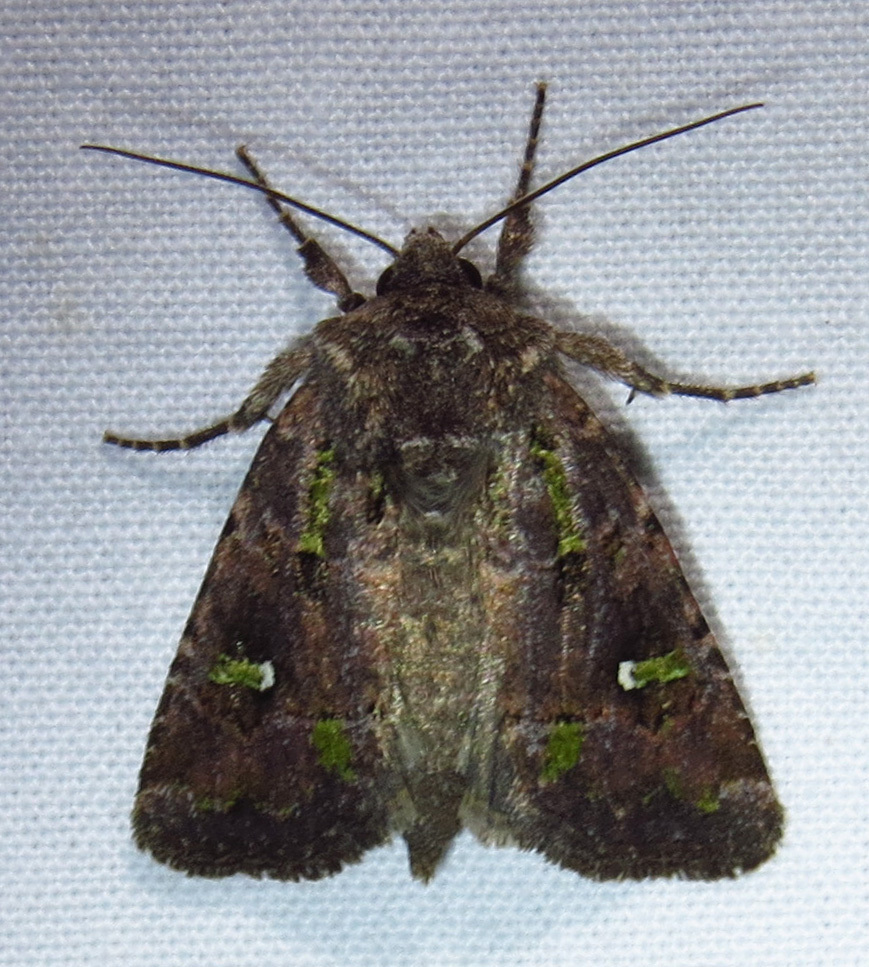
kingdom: Animalia
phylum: Arthropoda
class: Insecta
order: Lepidoptera
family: Noctuidae
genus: Lacinipolia
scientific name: Lacinipolia renigera
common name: Kidney-spotted minor
